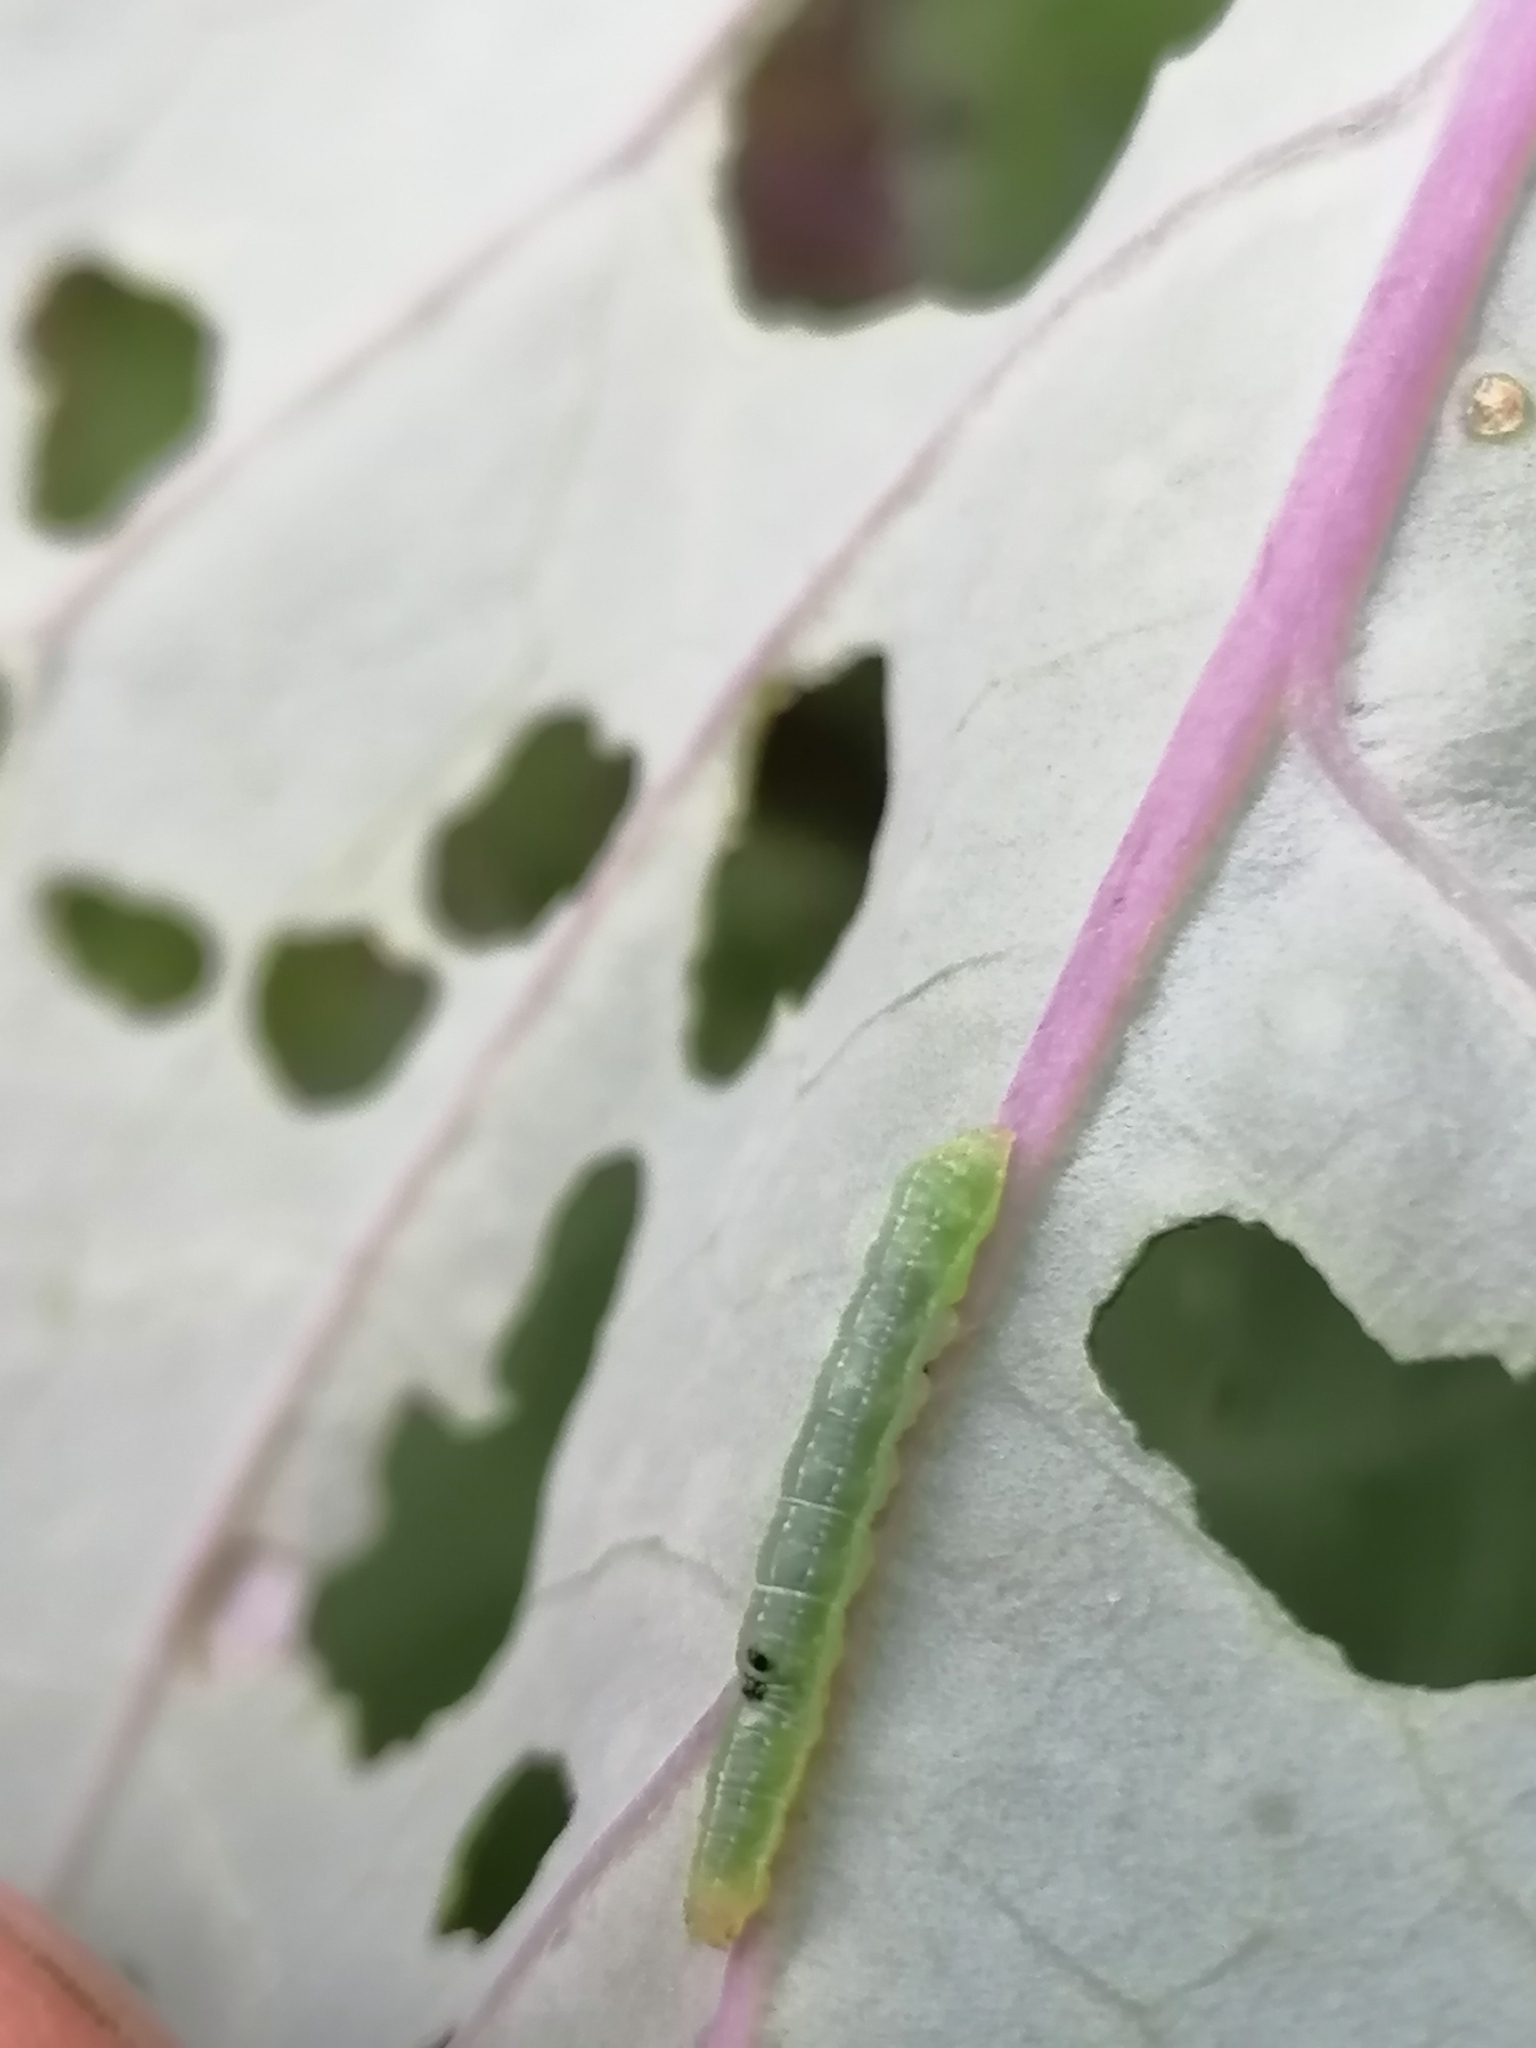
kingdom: Animalia
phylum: Arthropoda
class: Insecta
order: Lepidoptera
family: Pieridae
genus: Pieris
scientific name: Pieris rapae
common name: Small white
